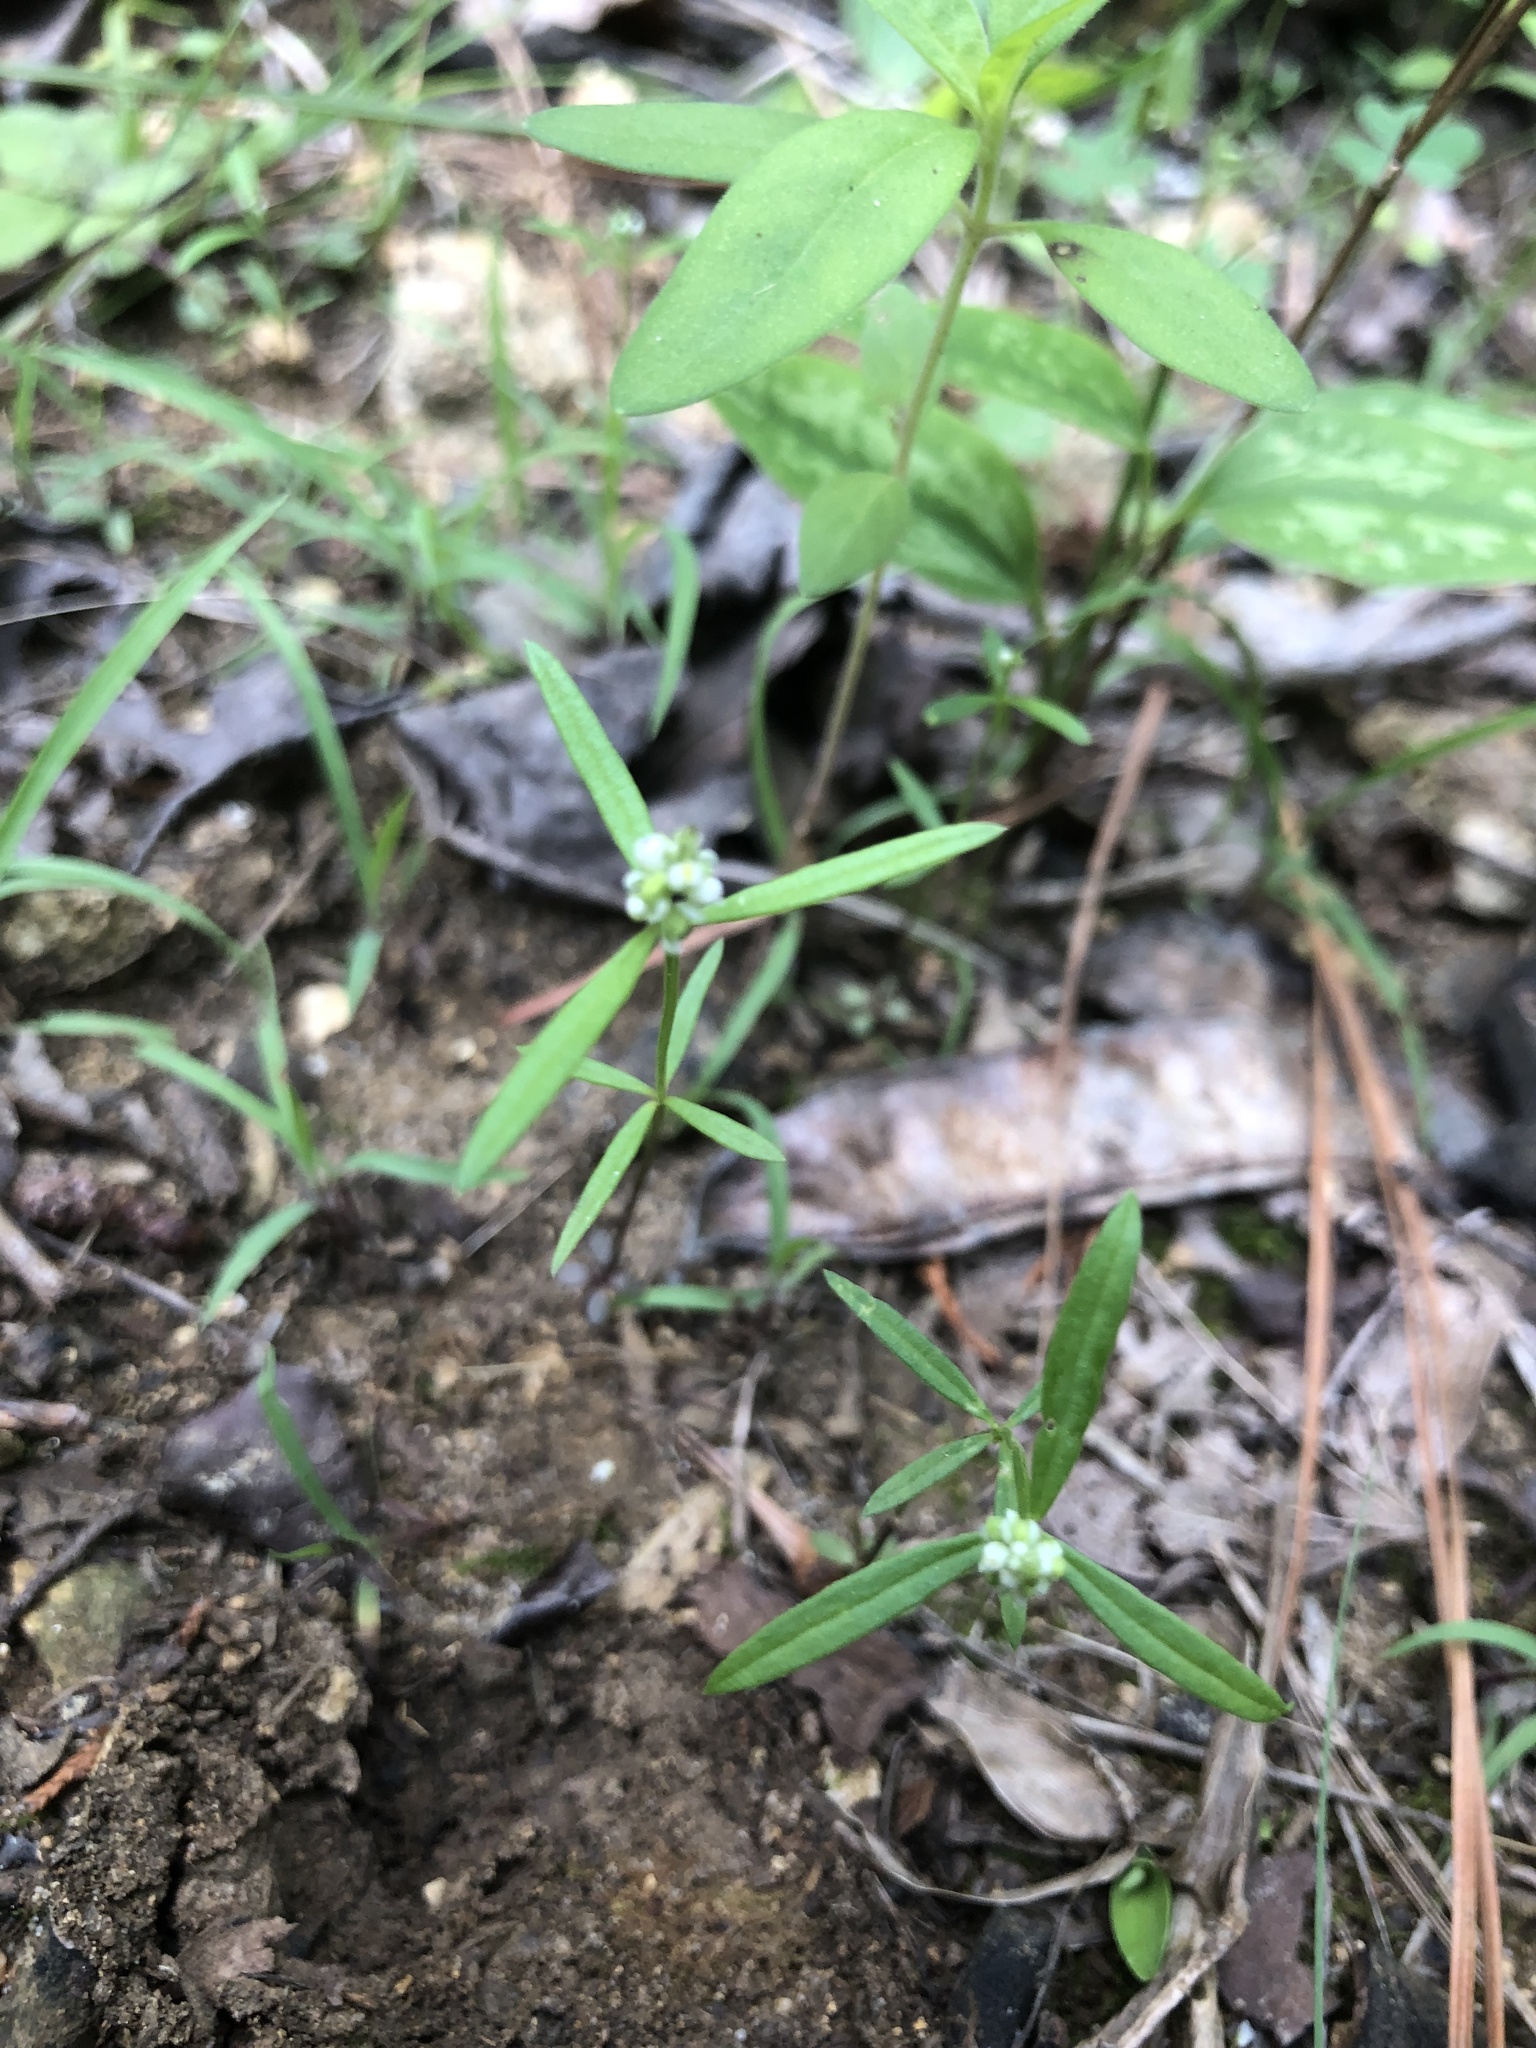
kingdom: Plantae
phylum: Tracheophyta
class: Magnoliopsida
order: Fabales
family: Polygalaceae
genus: Polygala
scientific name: Polygala verticillata
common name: Whorl milkwort
